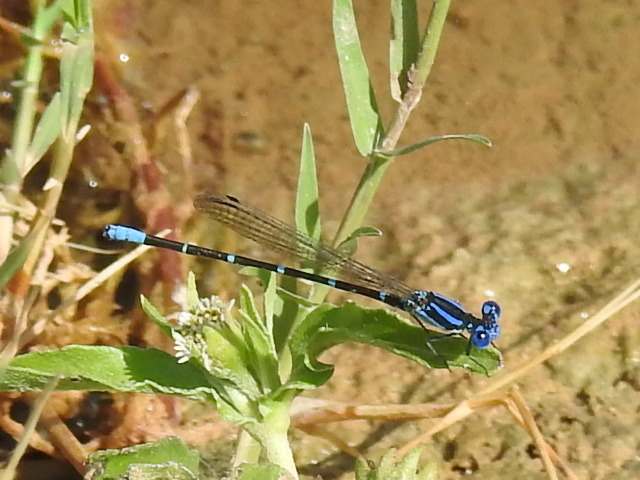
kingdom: Animalia
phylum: Arthropoda
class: Insecta
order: Odonata
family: Coenagrionidae
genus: Argia
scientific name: Argia sedula
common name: Blue-ringed dancer
